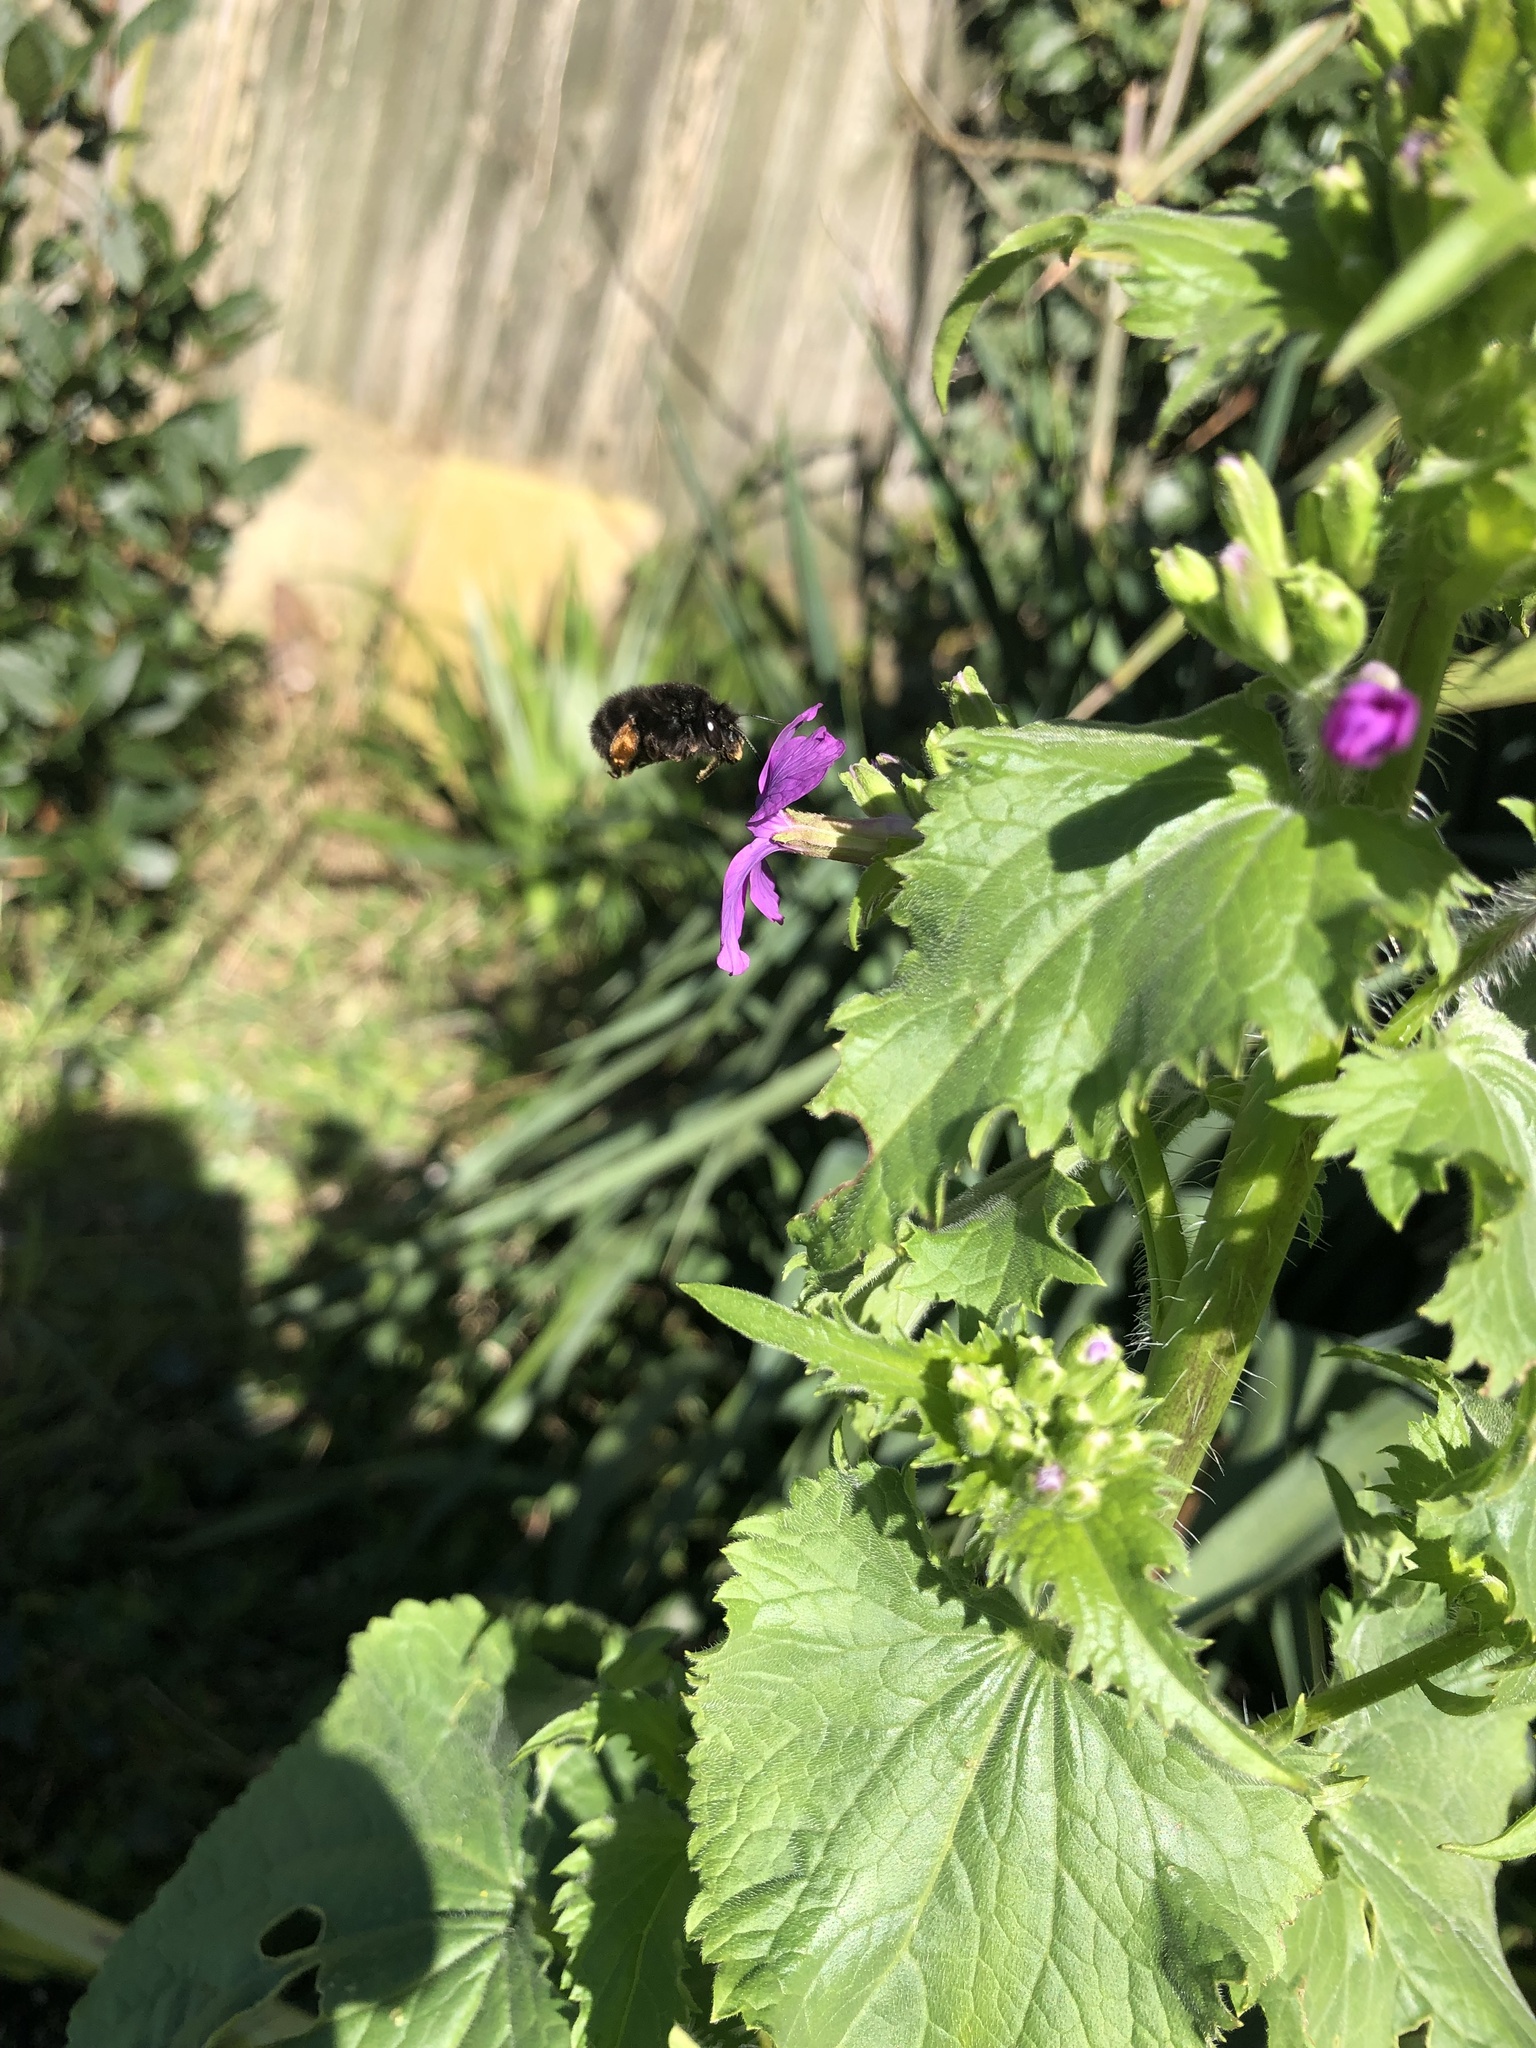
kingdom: Animalia
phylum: Arthropoda
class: Insecta
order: Hymenoptera
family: Apidae
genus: Anthophora
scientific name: Anthophora plumipes
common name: Hairy-footed flower bee
